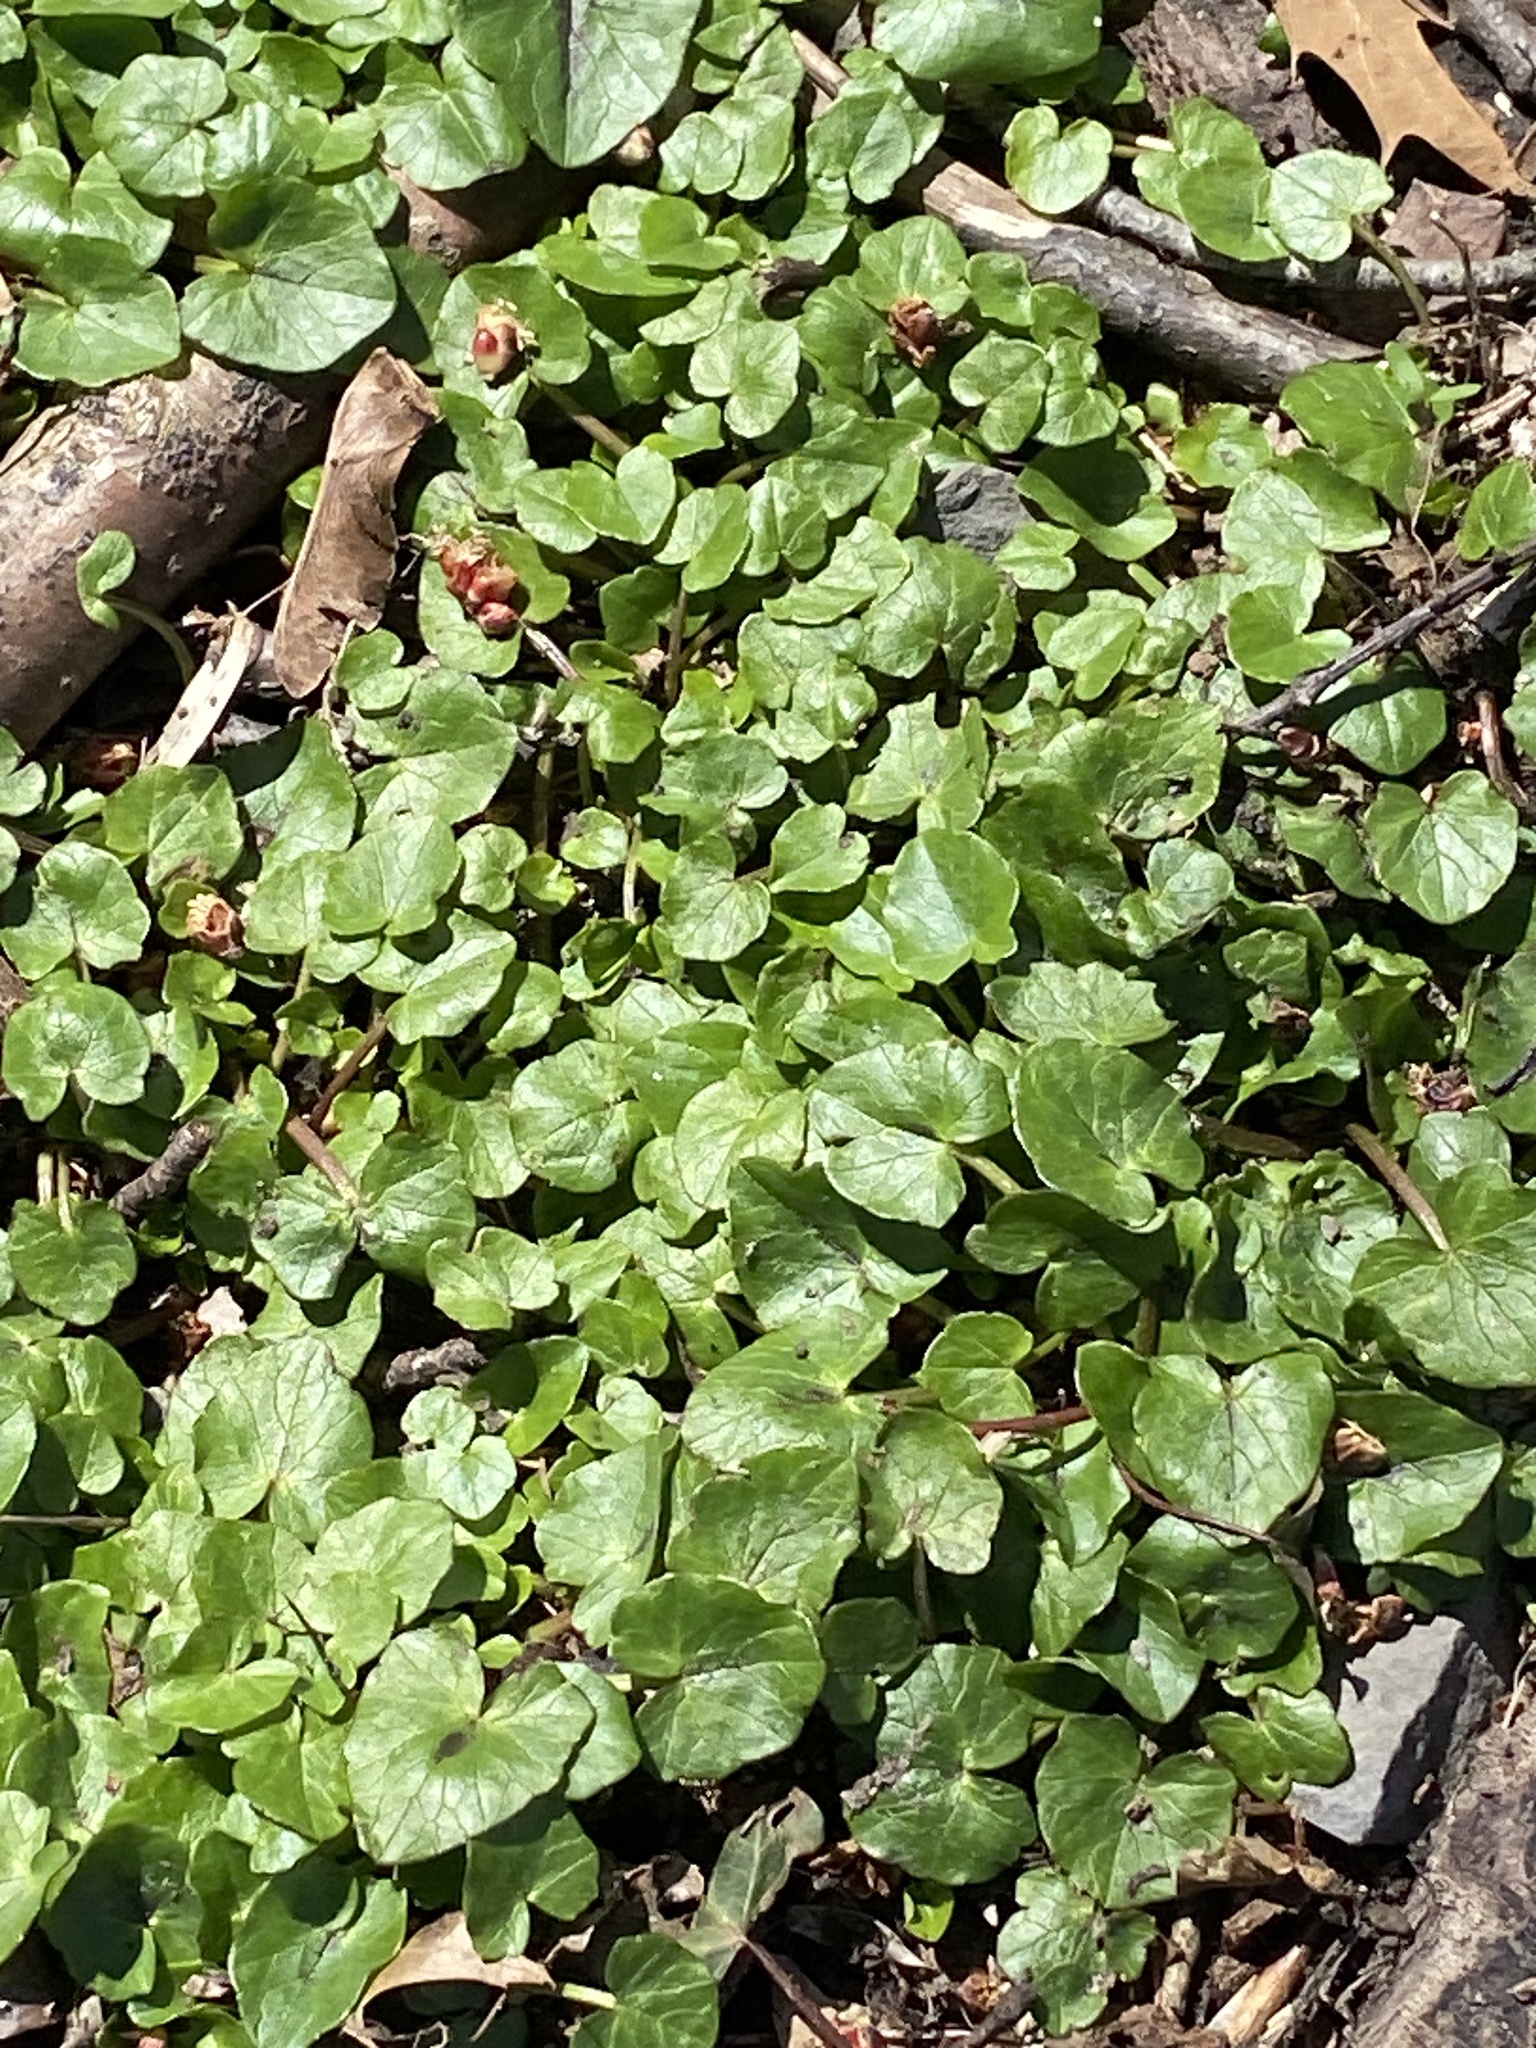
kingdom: Plantae
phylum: Tracheophyta
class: Magnoliopsida
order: Ranunculales
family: Ranunculaceae
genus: Ficaria
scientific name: Ficaria verna
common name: Lesser celandine
